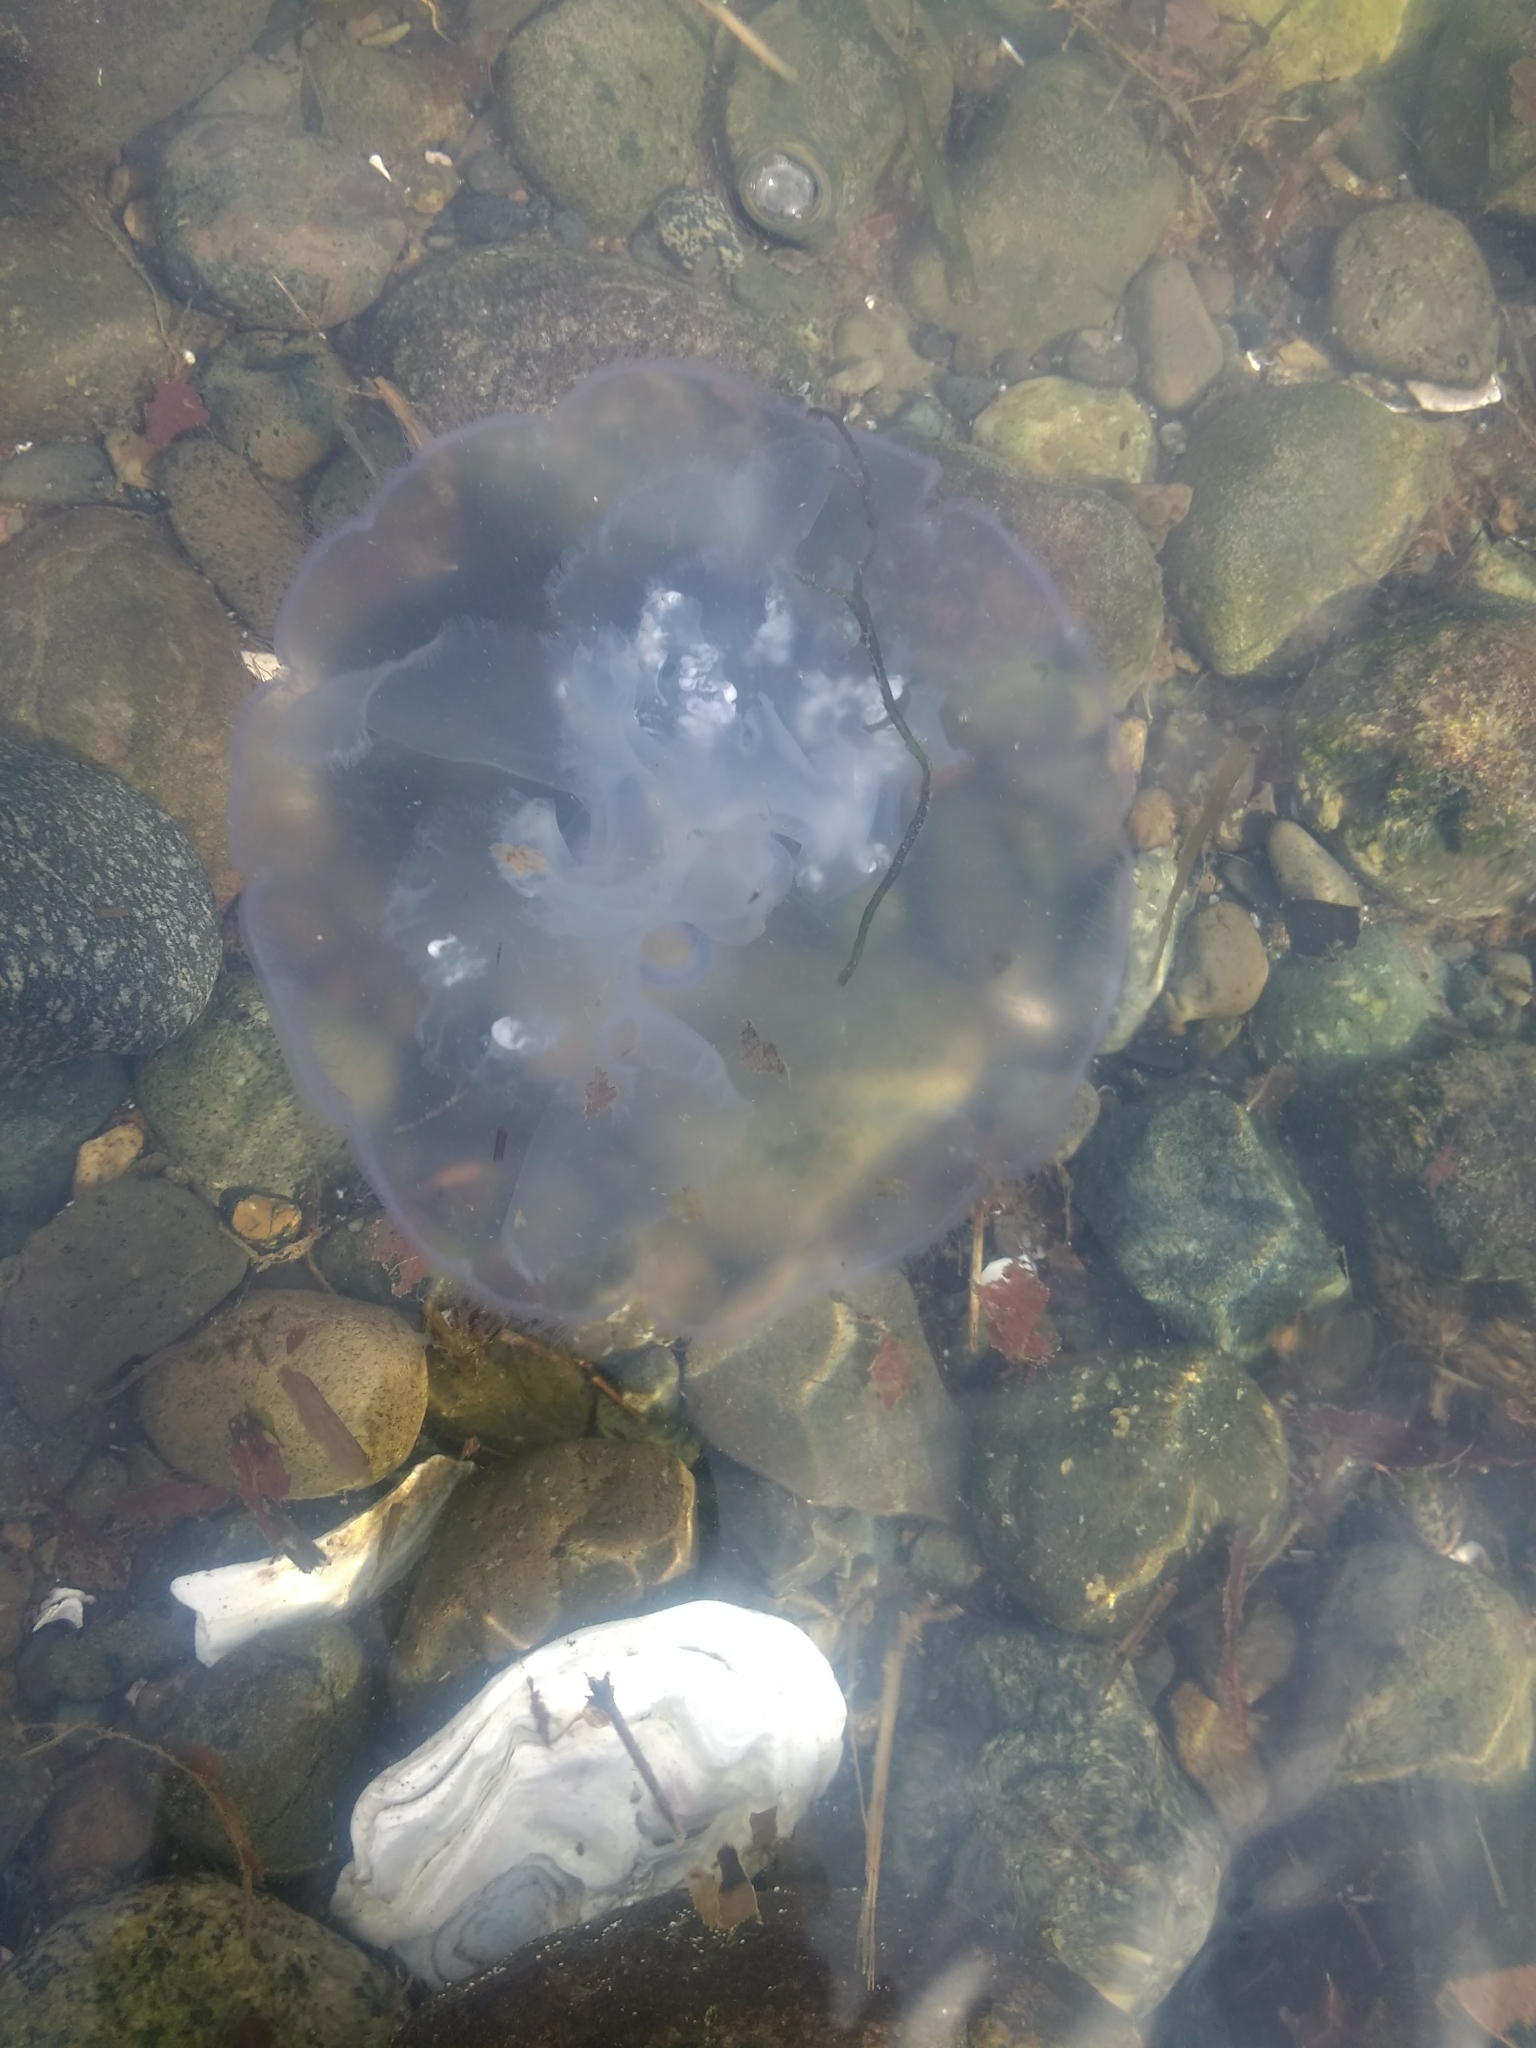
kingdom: Animalia
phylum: Cnidaria
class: Scyphozoa
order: Semaeostomeae
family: Ulmaridae
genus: Aurelia
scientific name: Aurelia labiata
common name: Pacific moon jelly
